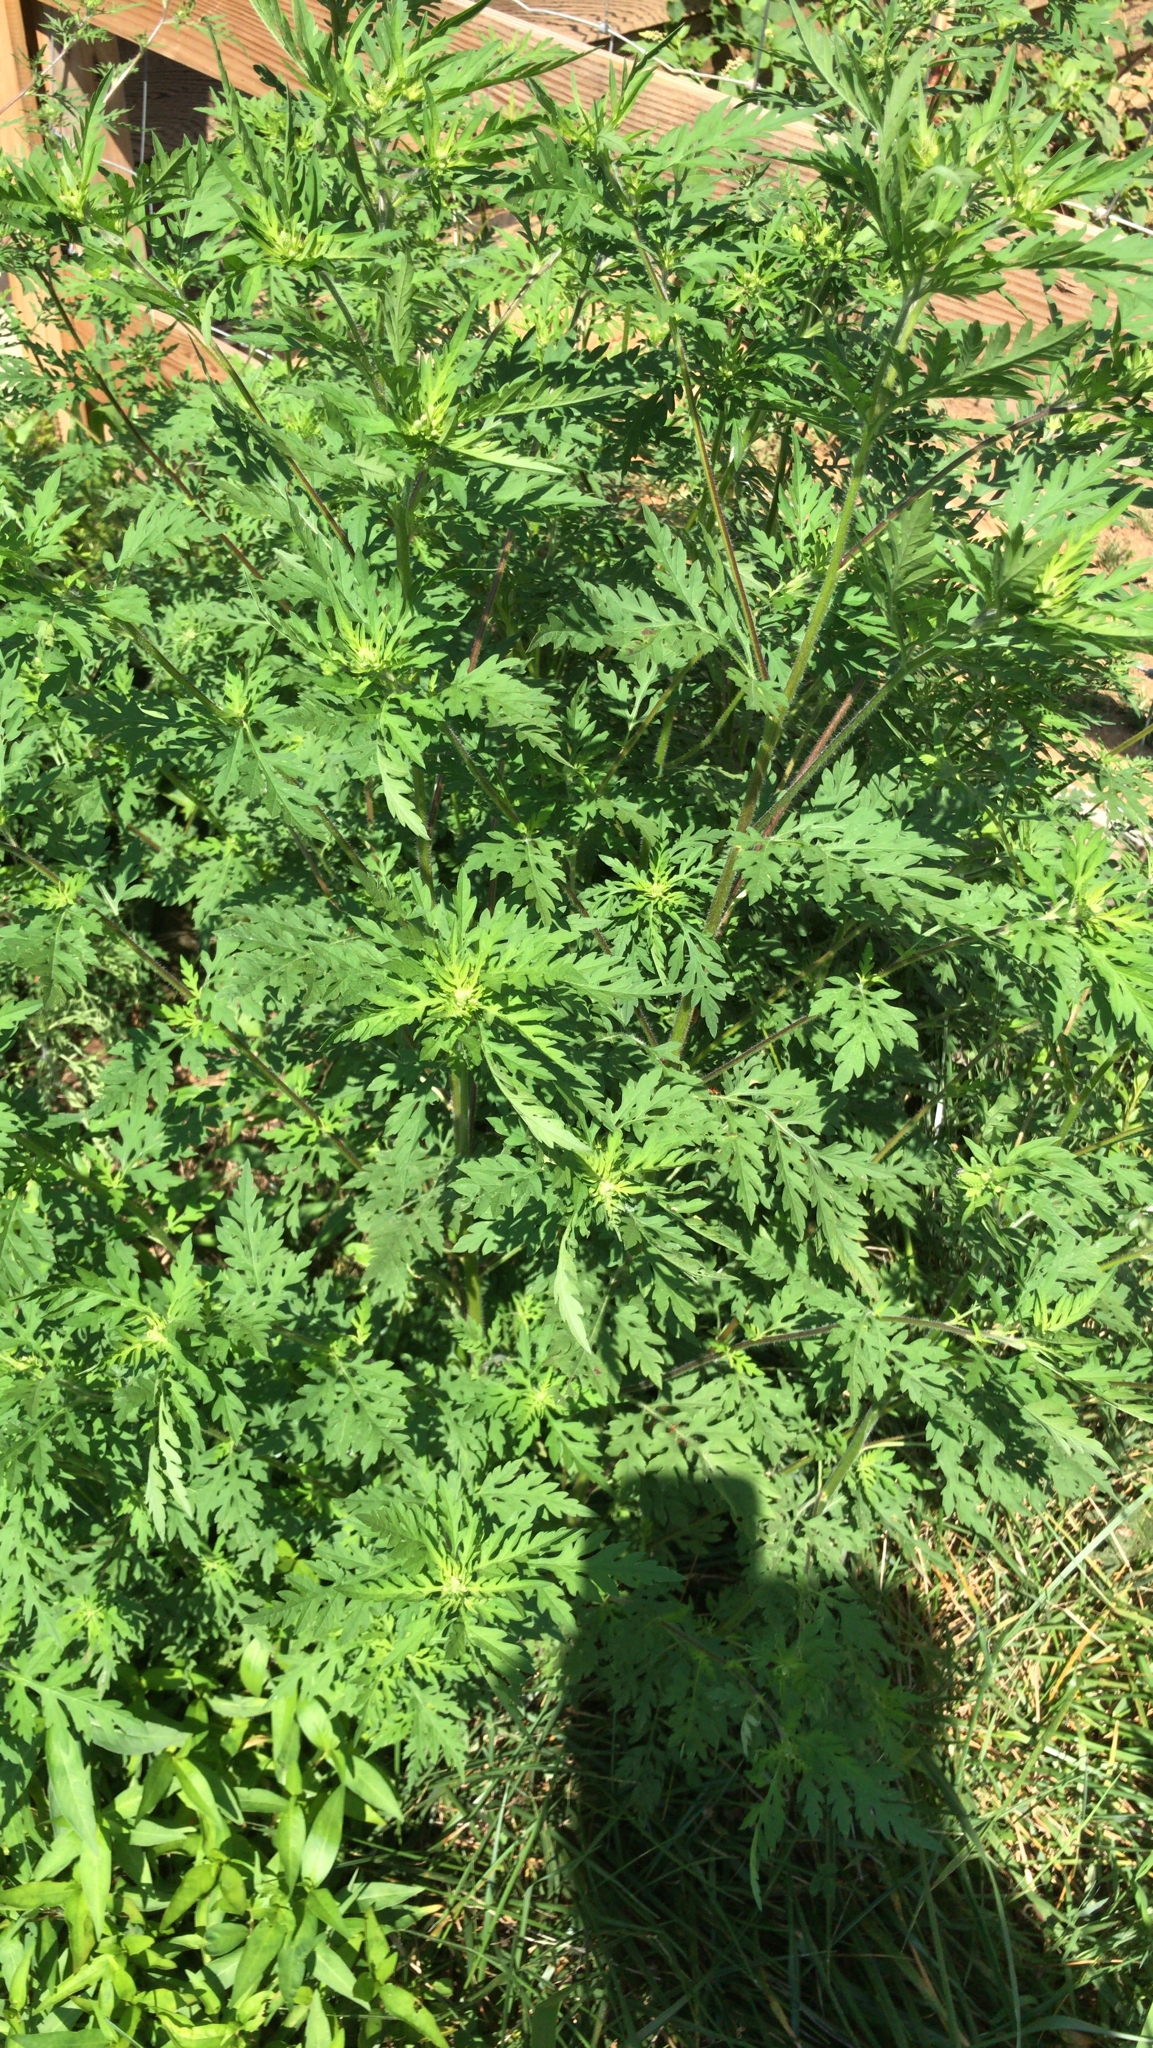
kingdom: Plantae
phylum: Tracheophyta
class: Magnoliopsida
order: Asterales
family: Asteraceae
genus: Ambrosia
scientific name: Ambrosia artemisiifolia
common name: Annual ragweed
